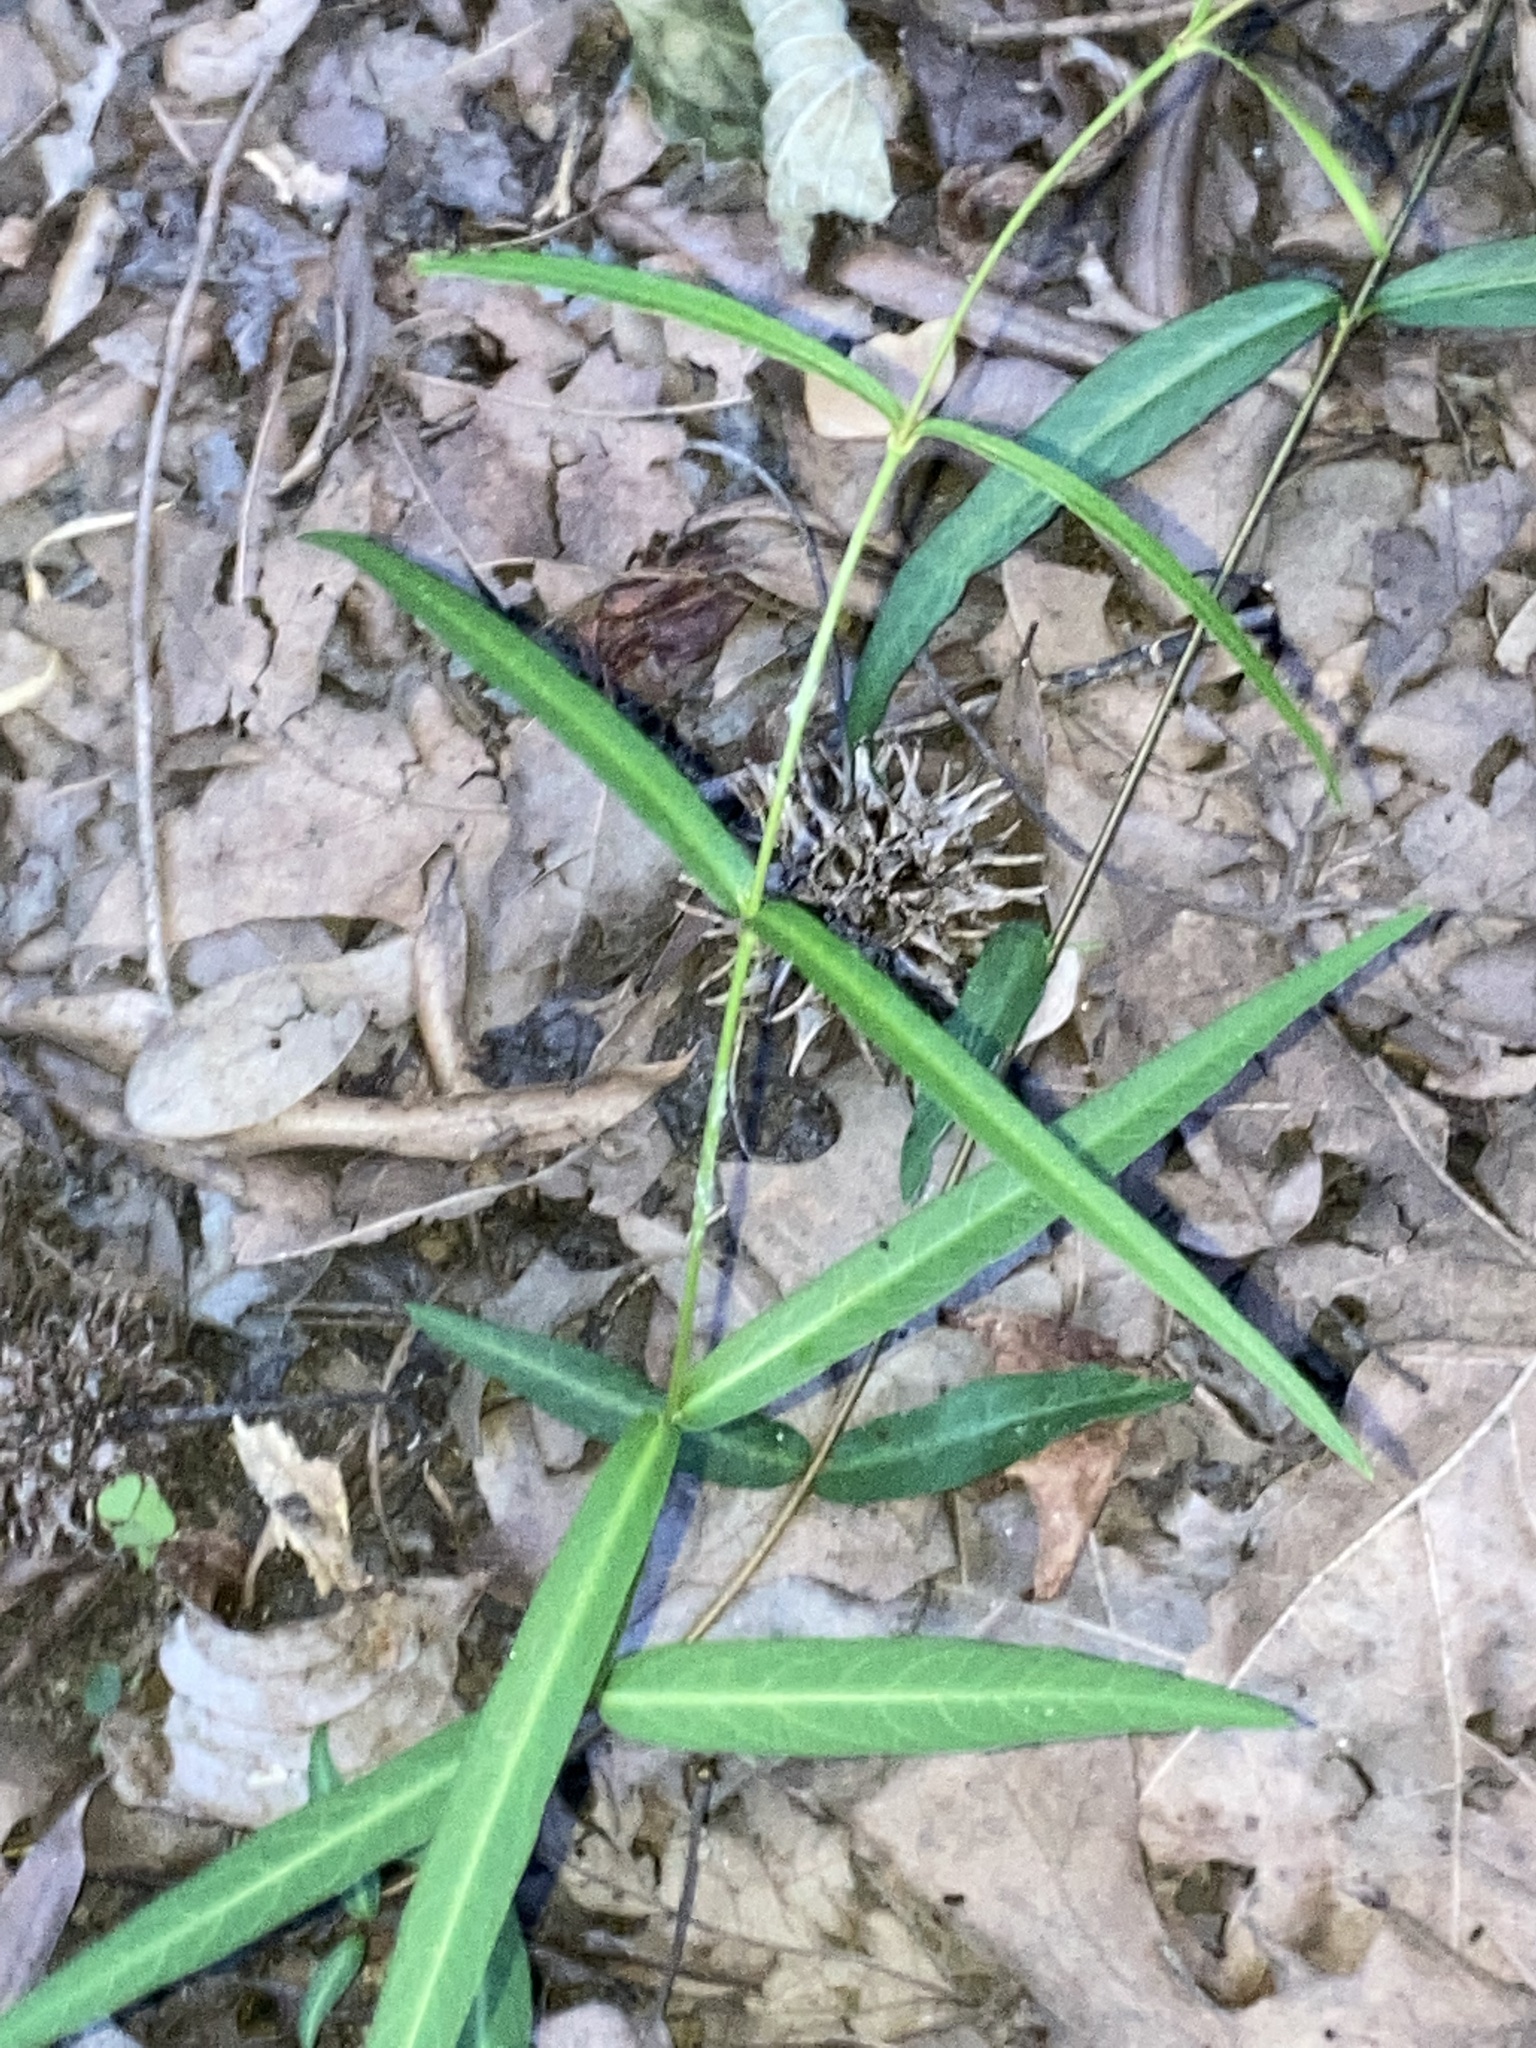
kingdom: Plantae
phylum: Tracheophyta
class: Magnoliopsida
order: Gentianales
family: Apocynaceae
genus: Thyrsanthella
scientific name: Thyrsanthella difformis
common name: Climbing dogbane
